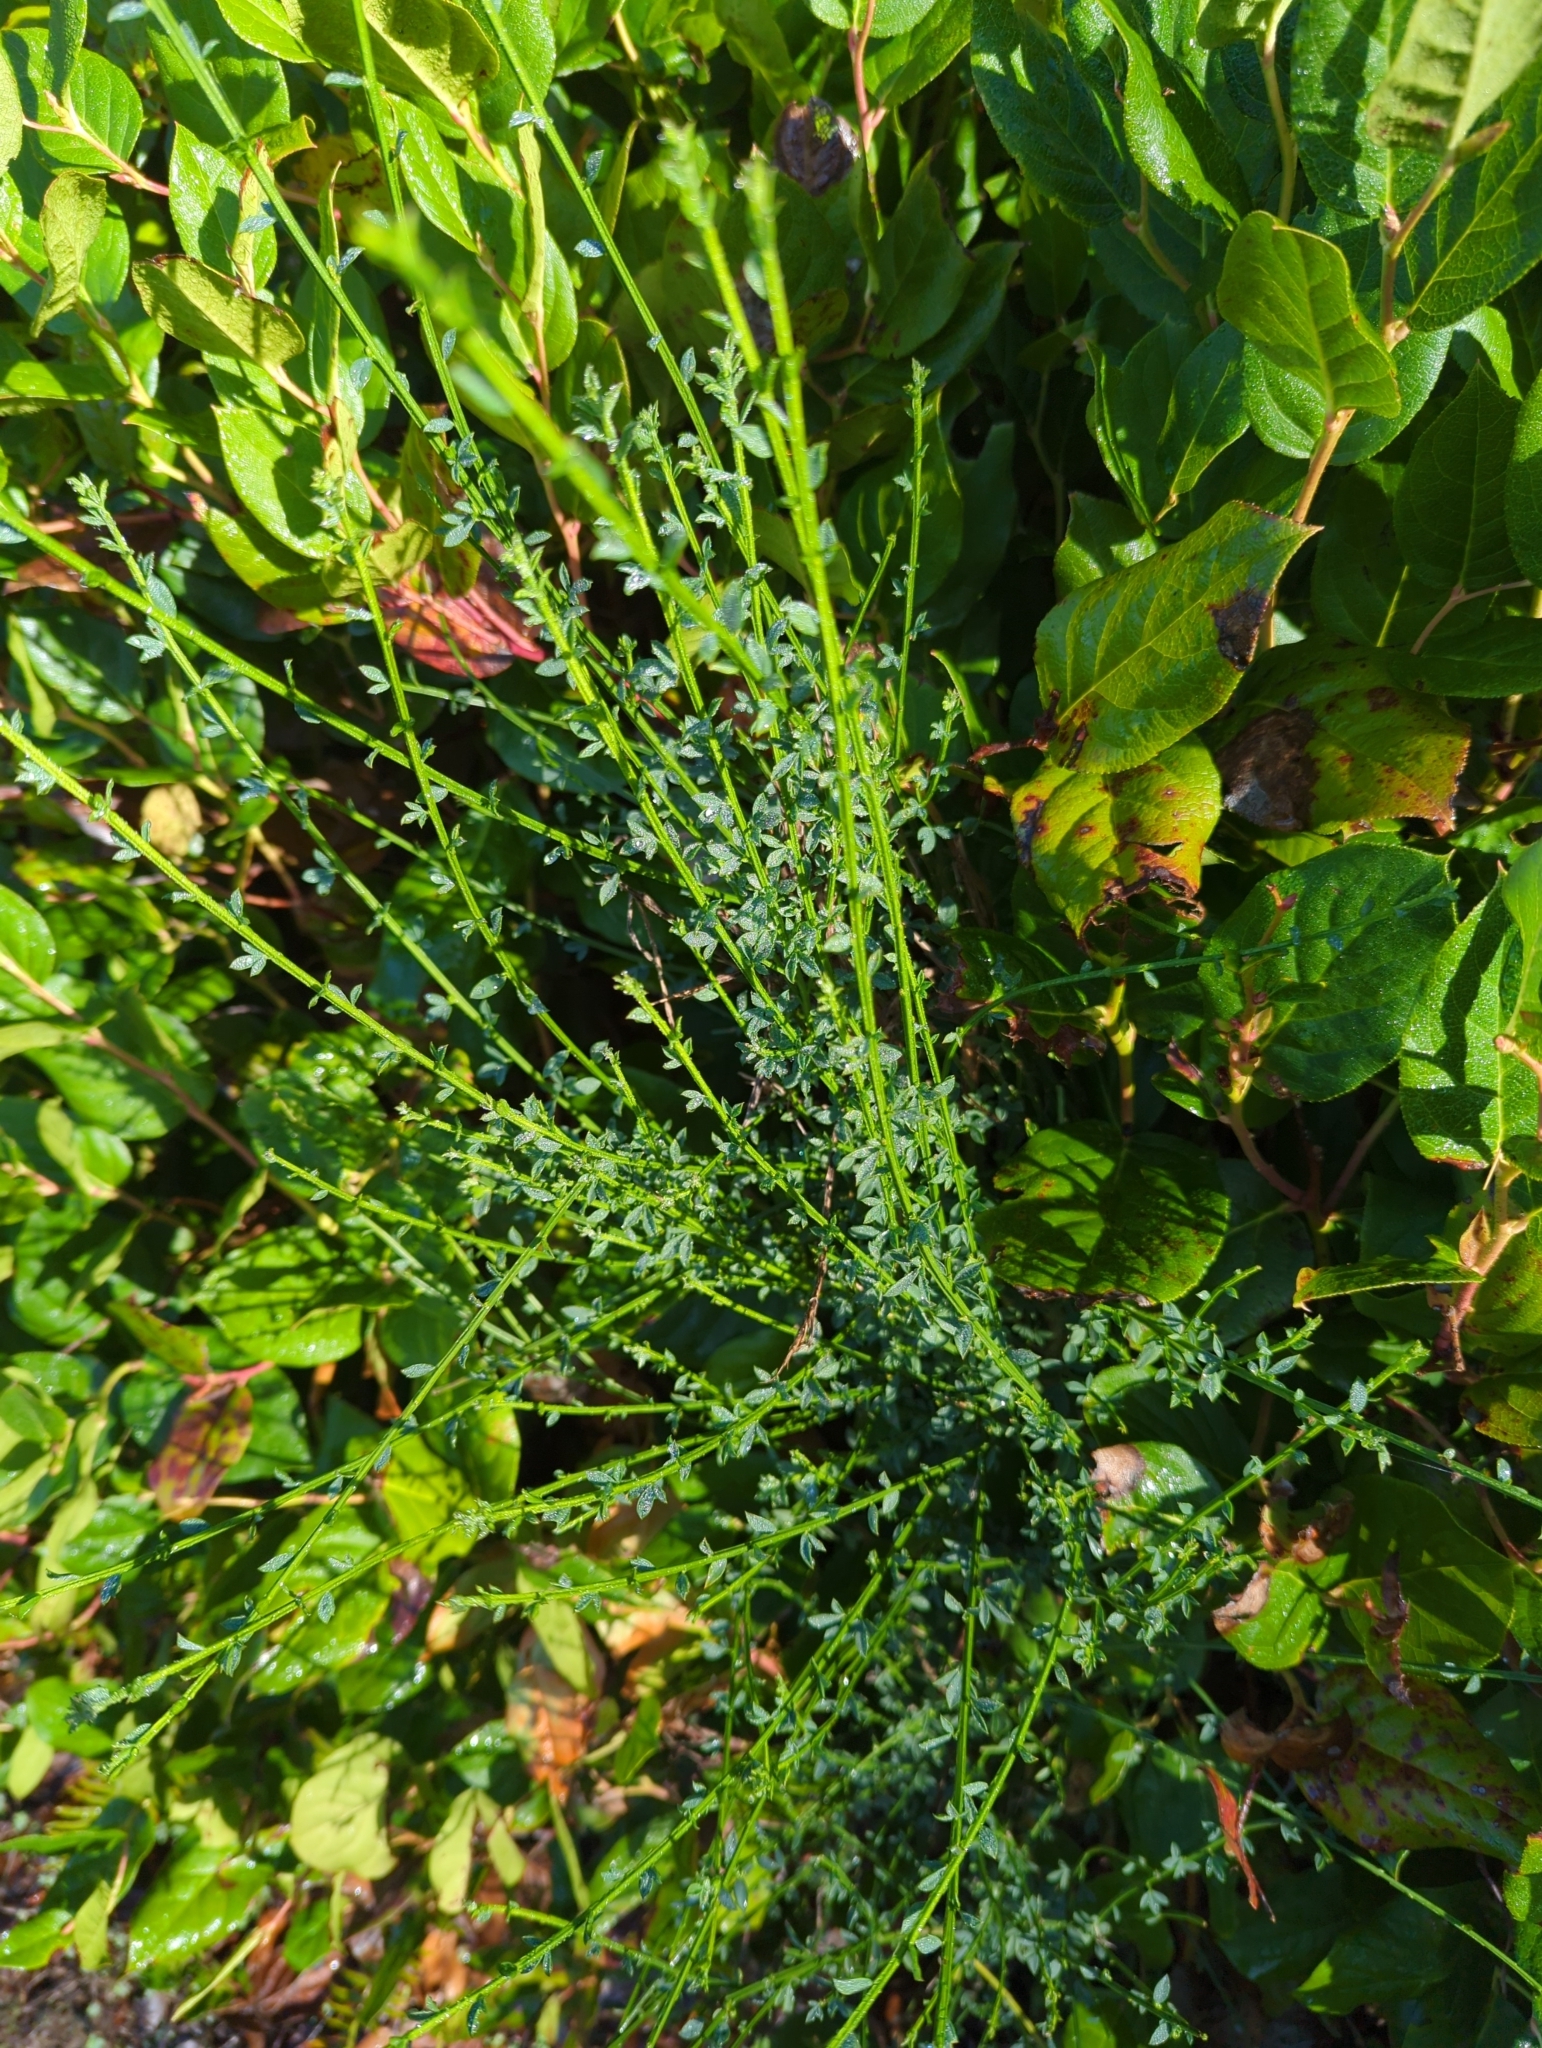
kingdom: Plantae
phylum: Tracheophyta
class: Magnoliopsida
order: Fabales
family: Fabaceae
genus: Cytisus
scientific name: Cytisus scoparius
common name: Scotch broom
